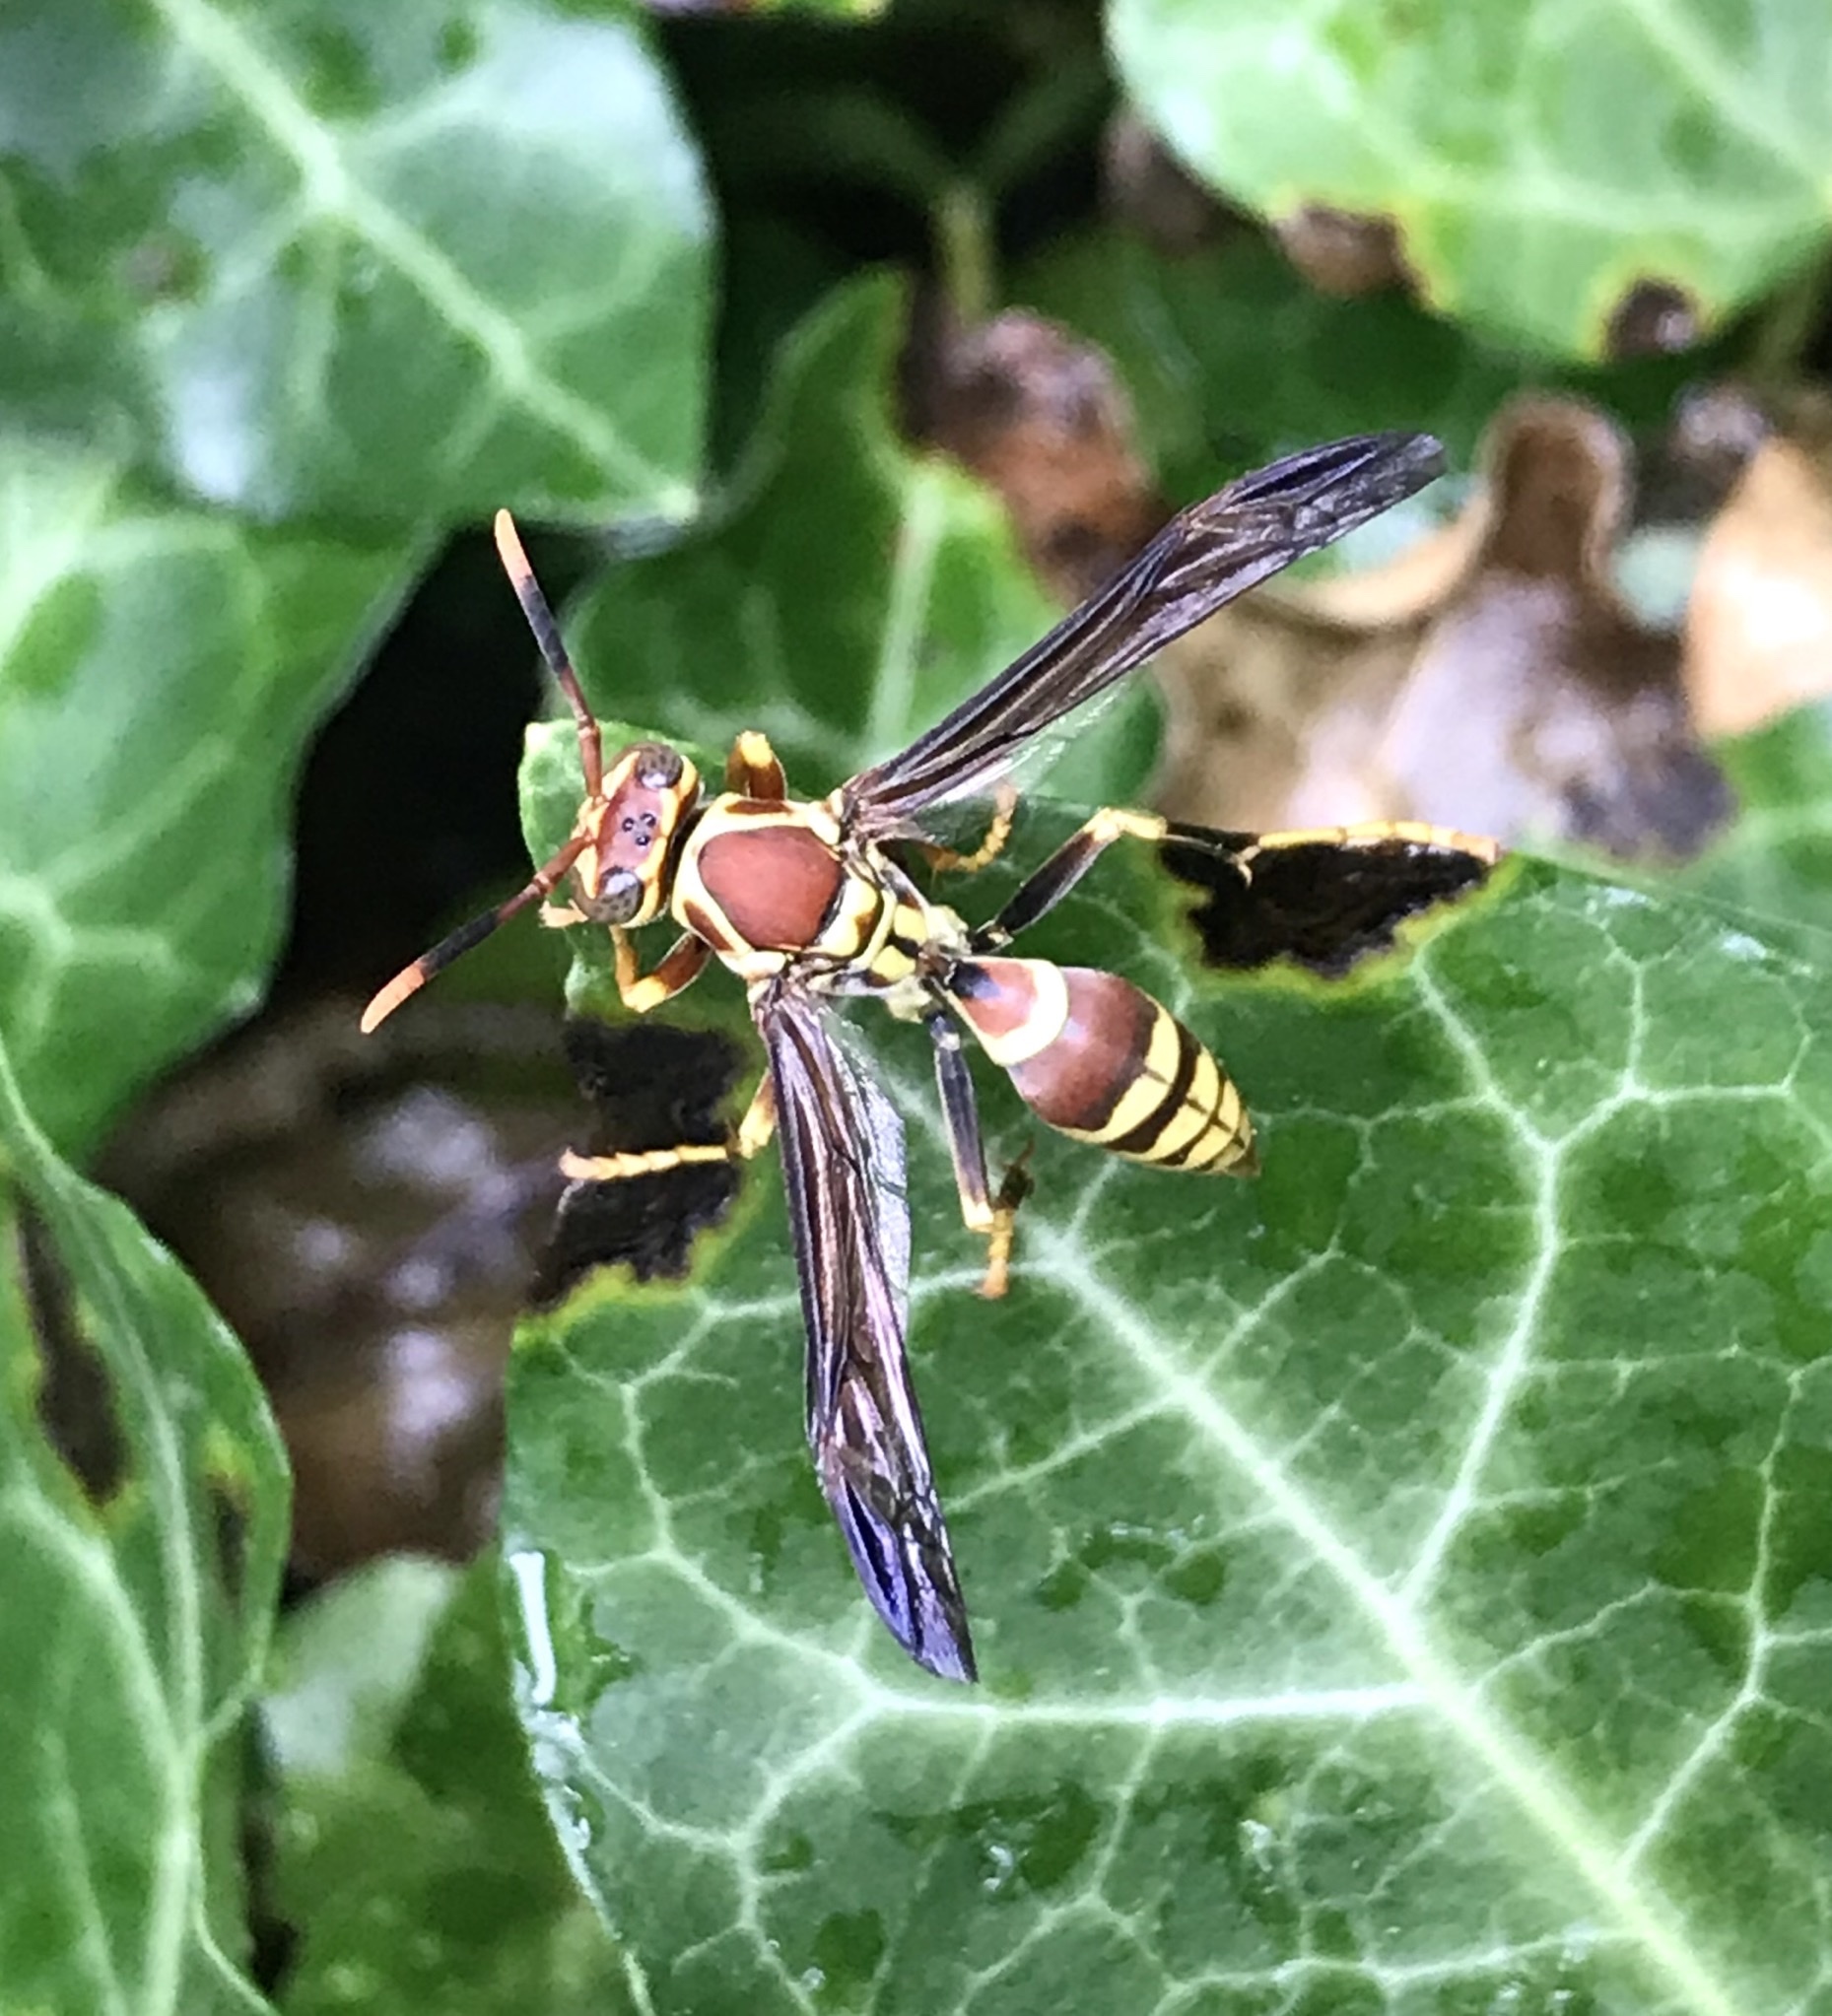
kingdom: Animalia
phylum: Arthropoda
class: Insecta
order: Hymenoptera
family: Eumenidae
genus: Polistes
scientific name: Polistes exclamans
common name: Paper wasp
